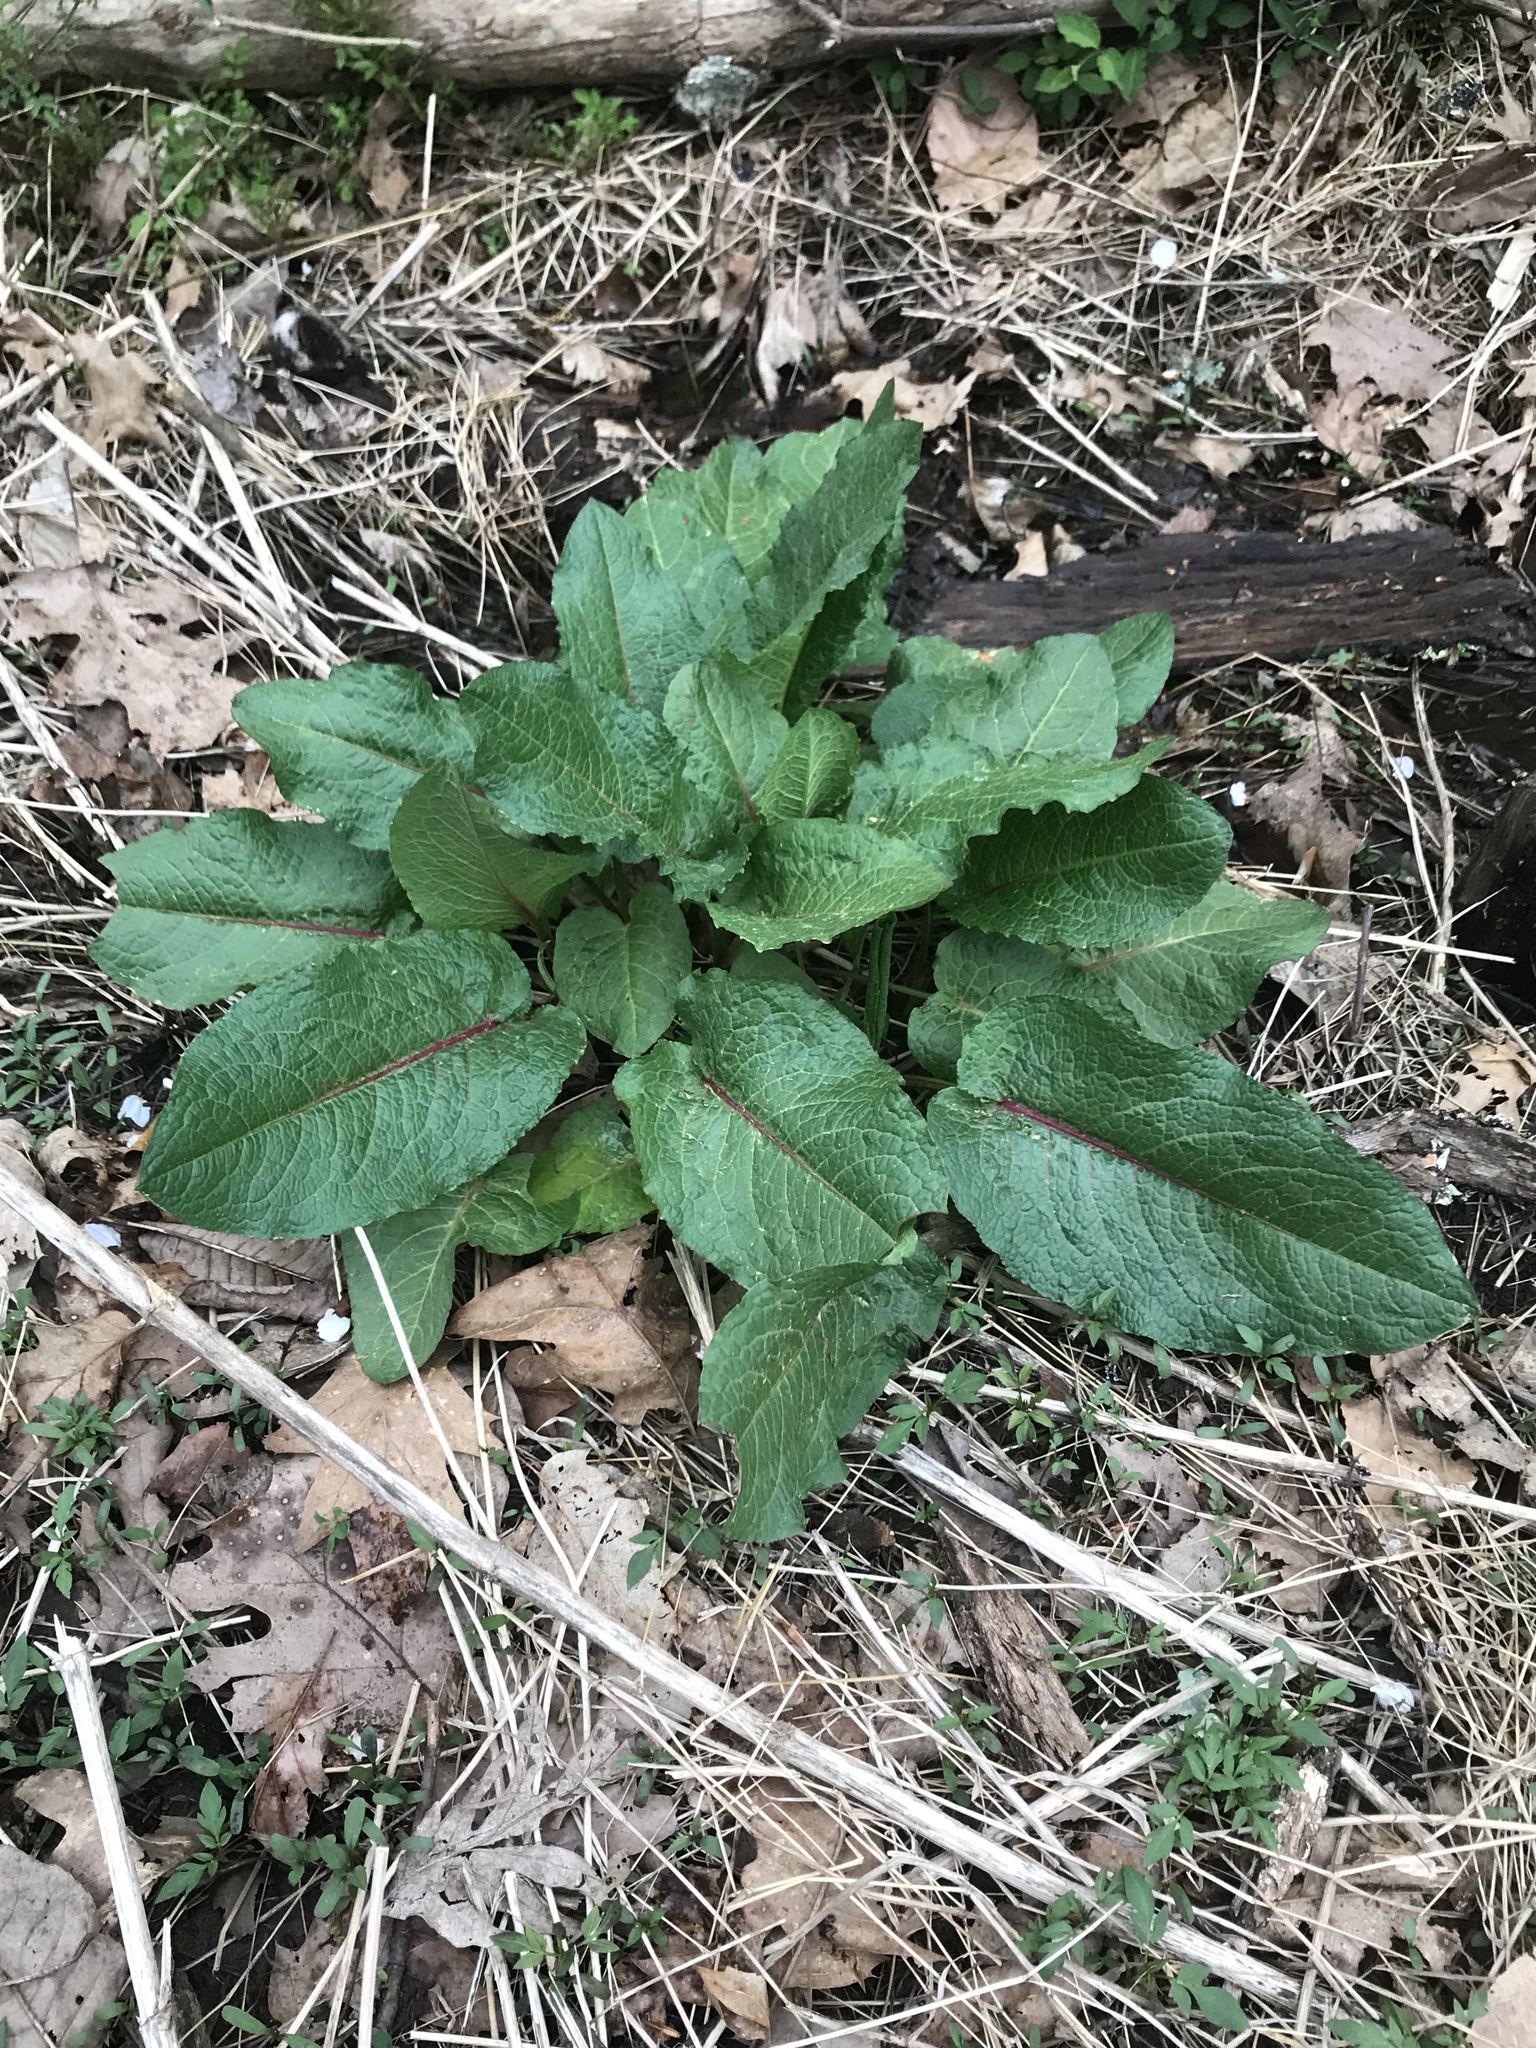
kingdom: Plantae
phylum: Tracheophyta
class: Magnoliopsida
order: Caryophyllales
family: Polygonaceae
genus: Rumex
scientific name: Rumex obtusifolius
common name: Bitter dock
